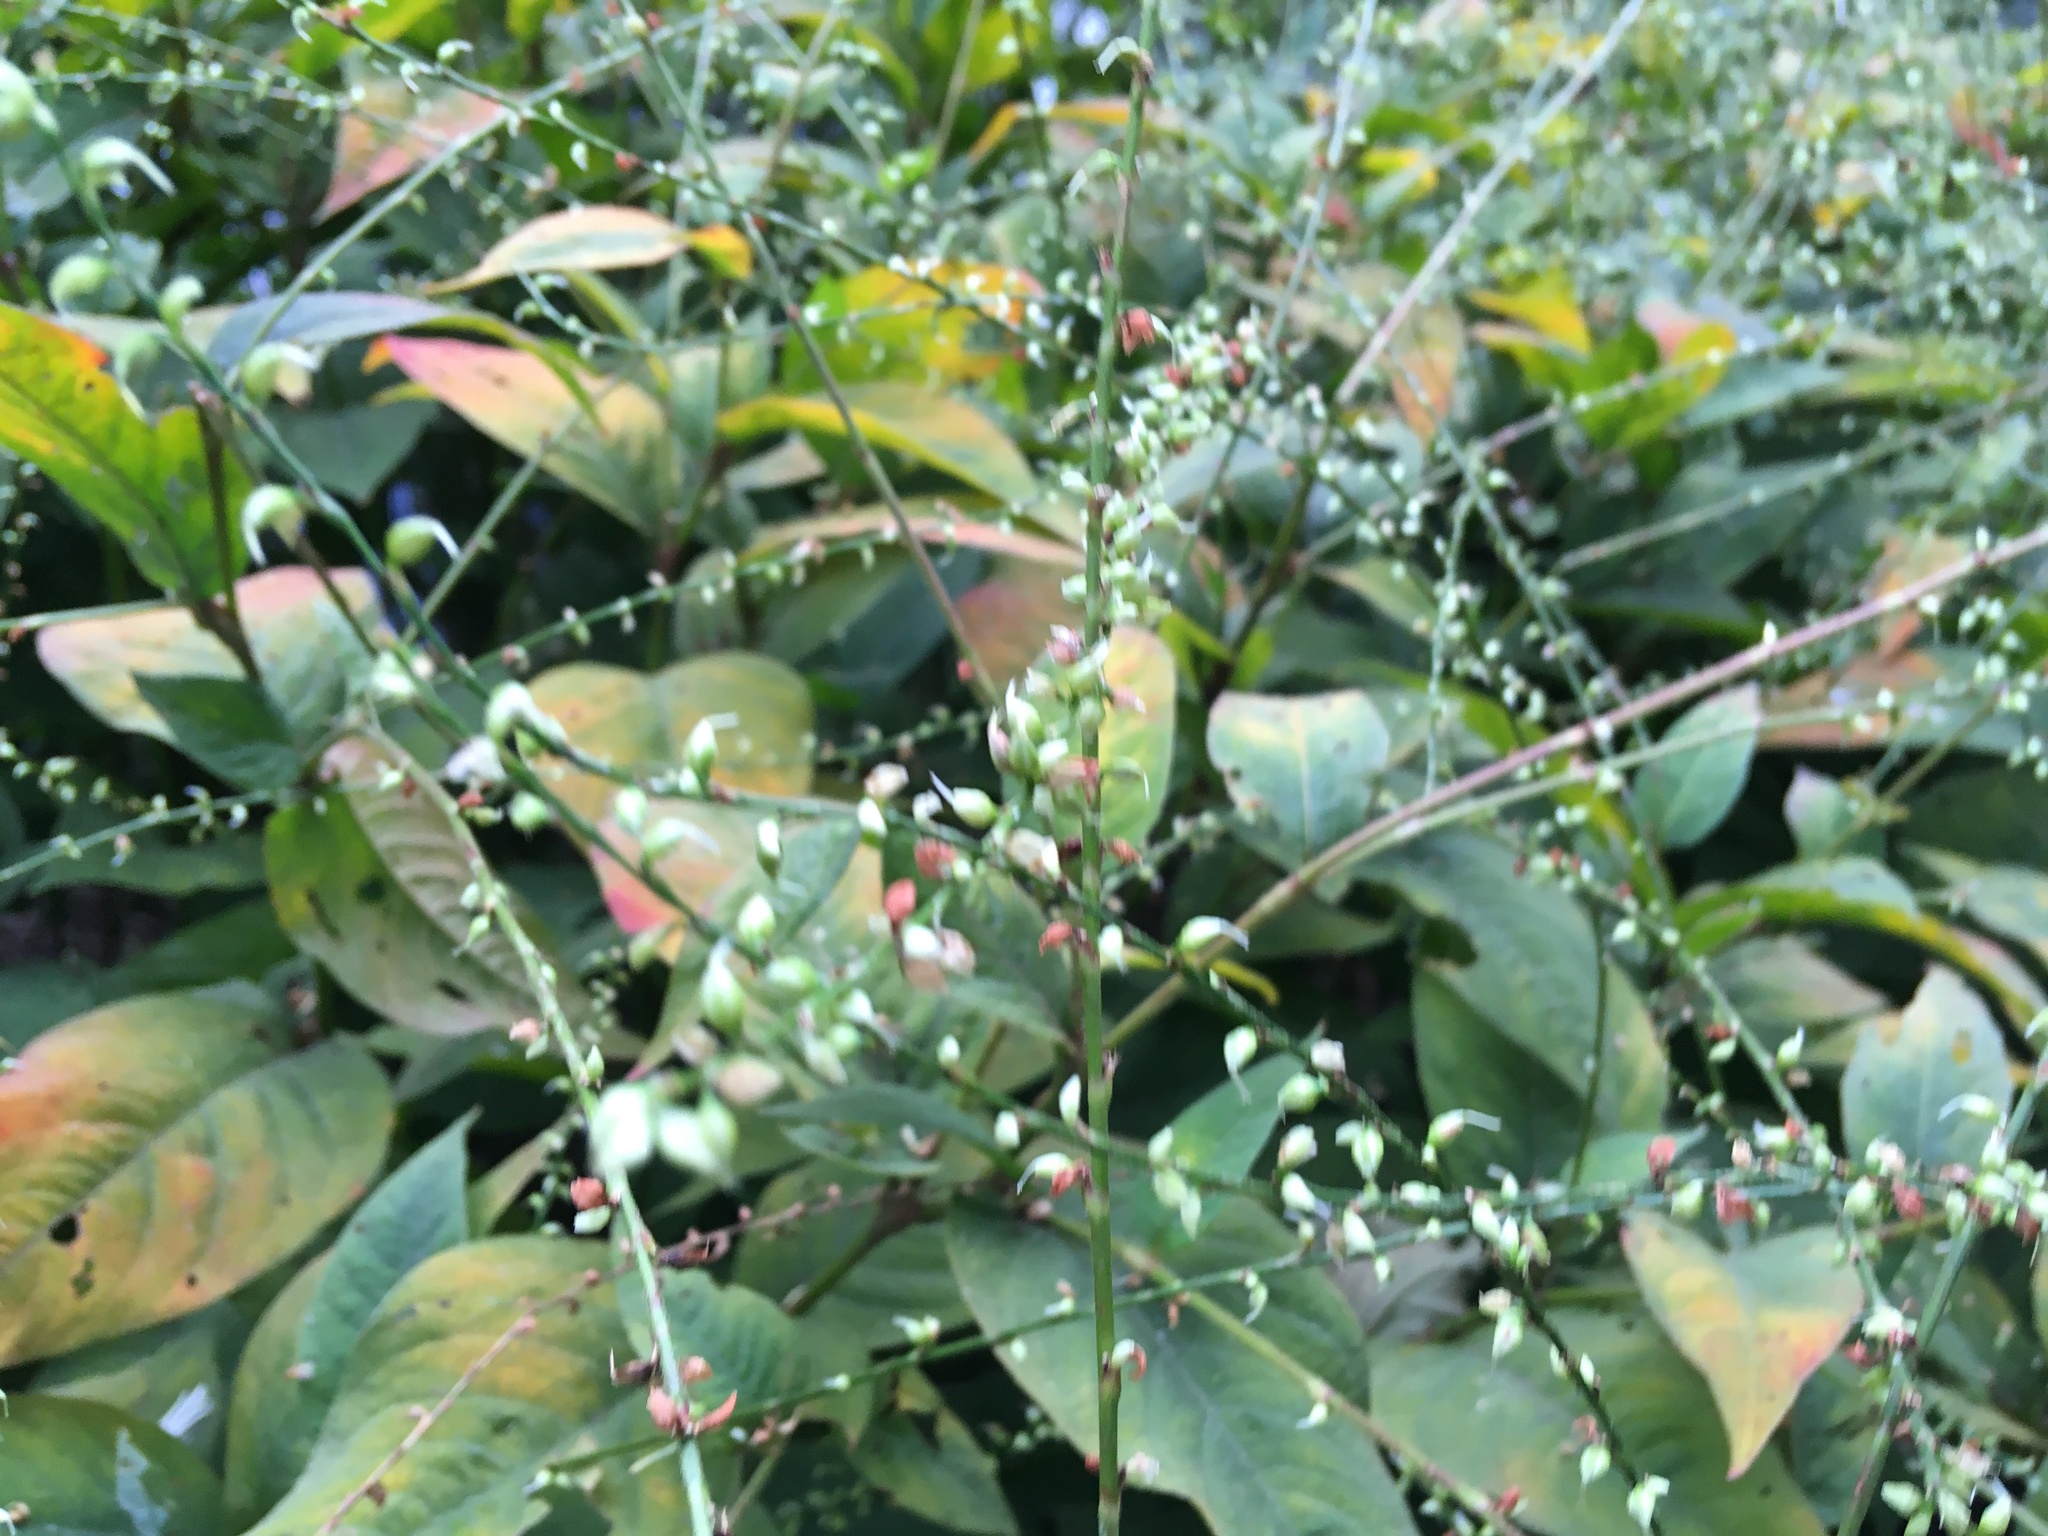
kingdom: Plantae
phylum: Tracheophyta
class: Magnoliopsida
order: Caryophyllales
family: Polygonaceae
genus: Persicaria
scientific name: Persicaria virginiana
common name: Jumpseed
